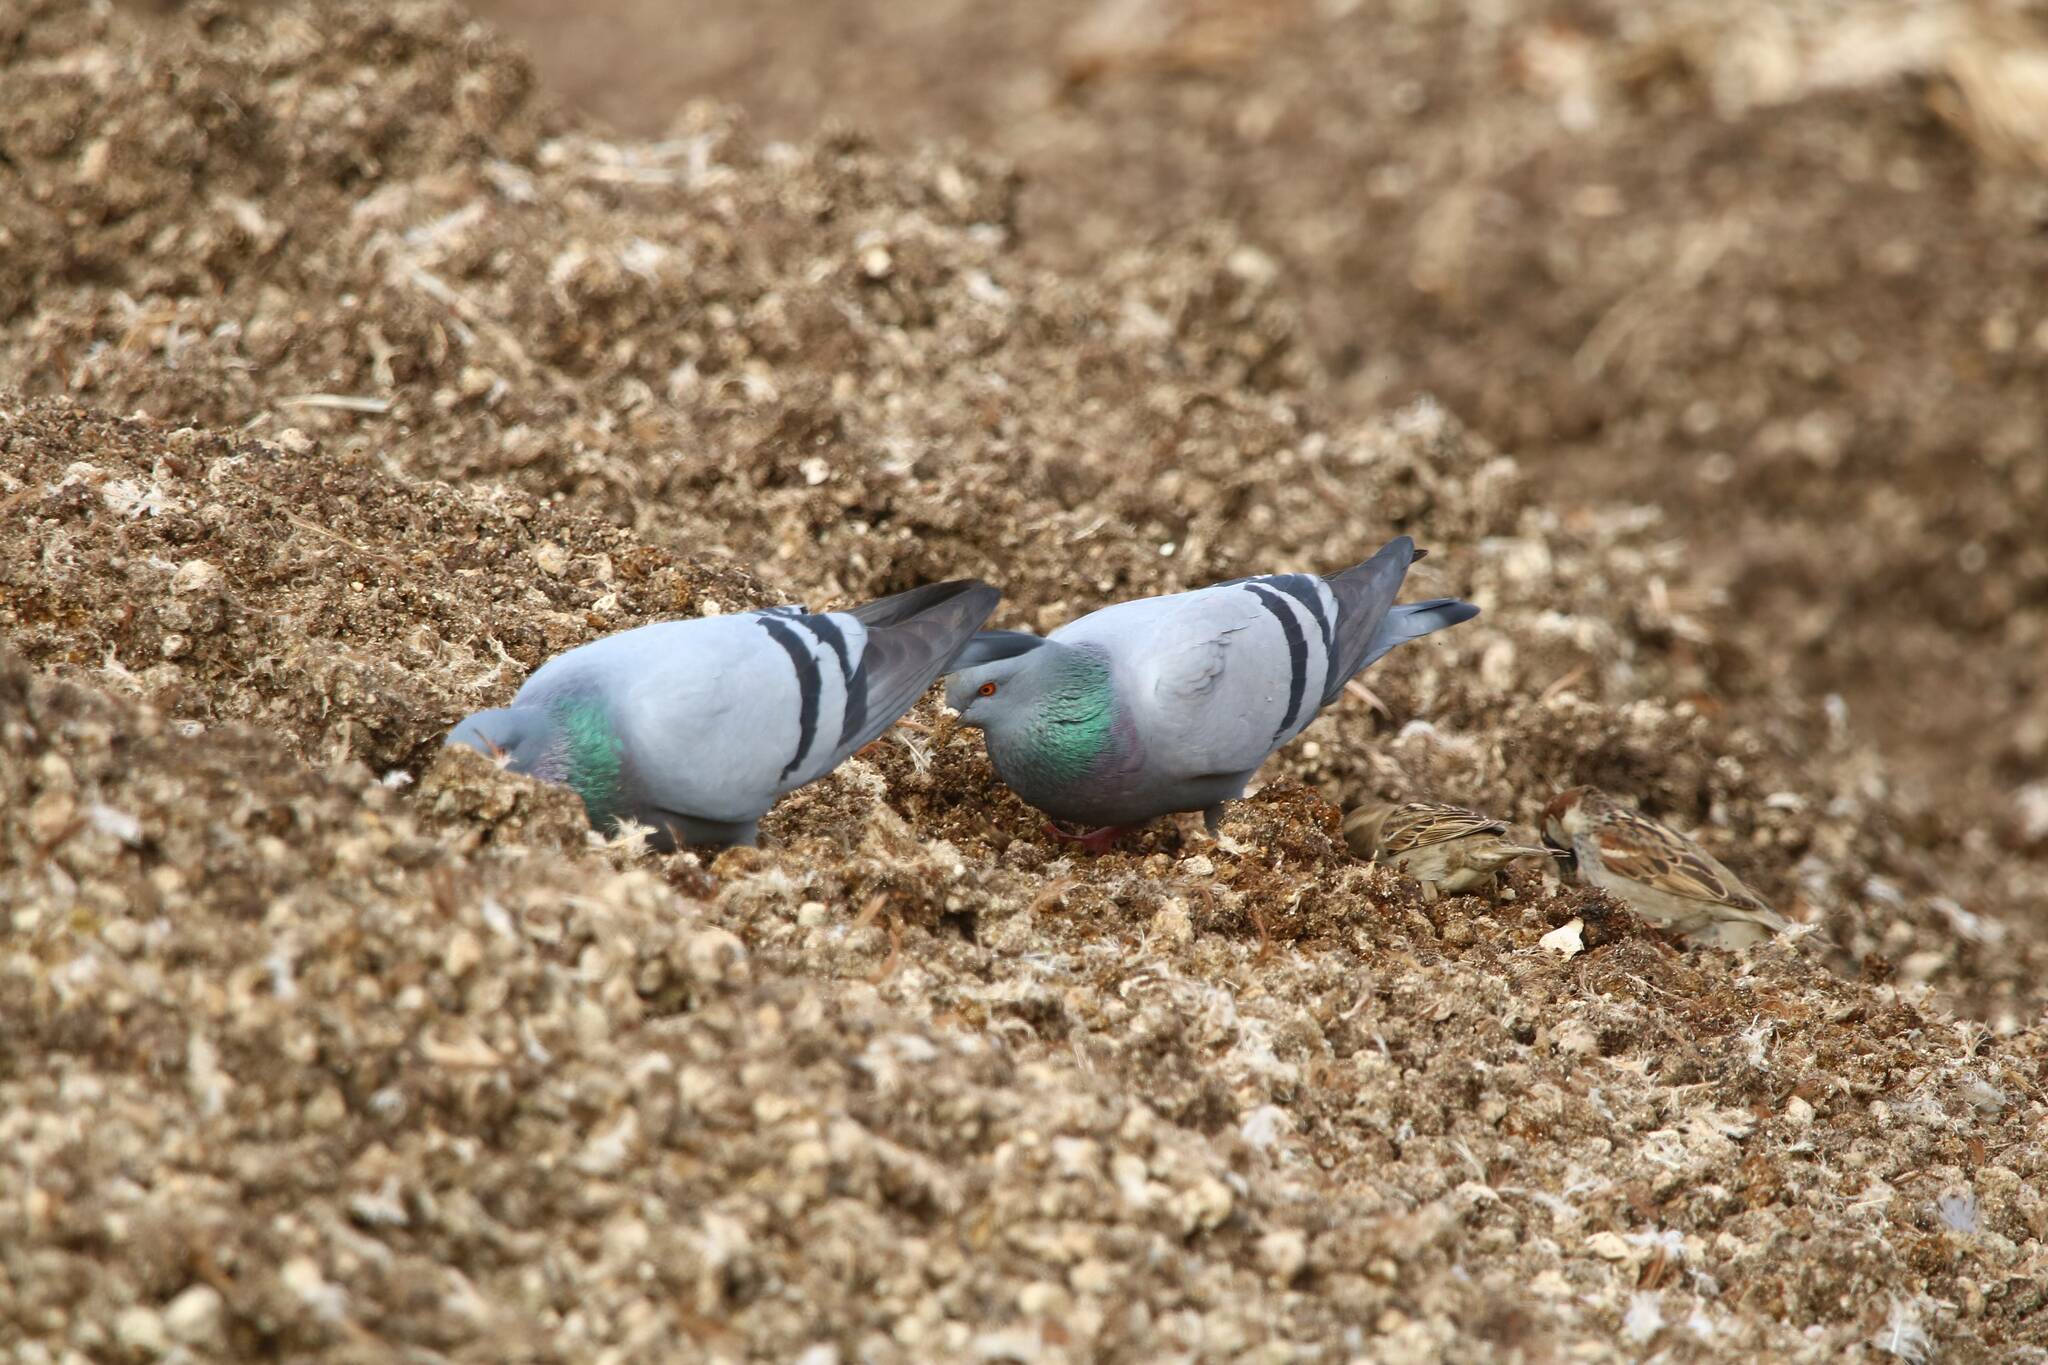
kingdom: Animalia
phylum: Chordata
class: Aves
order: Columbiformes
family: Columbidae
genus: Columba
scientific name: Columba livia
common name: Rock pigeon
